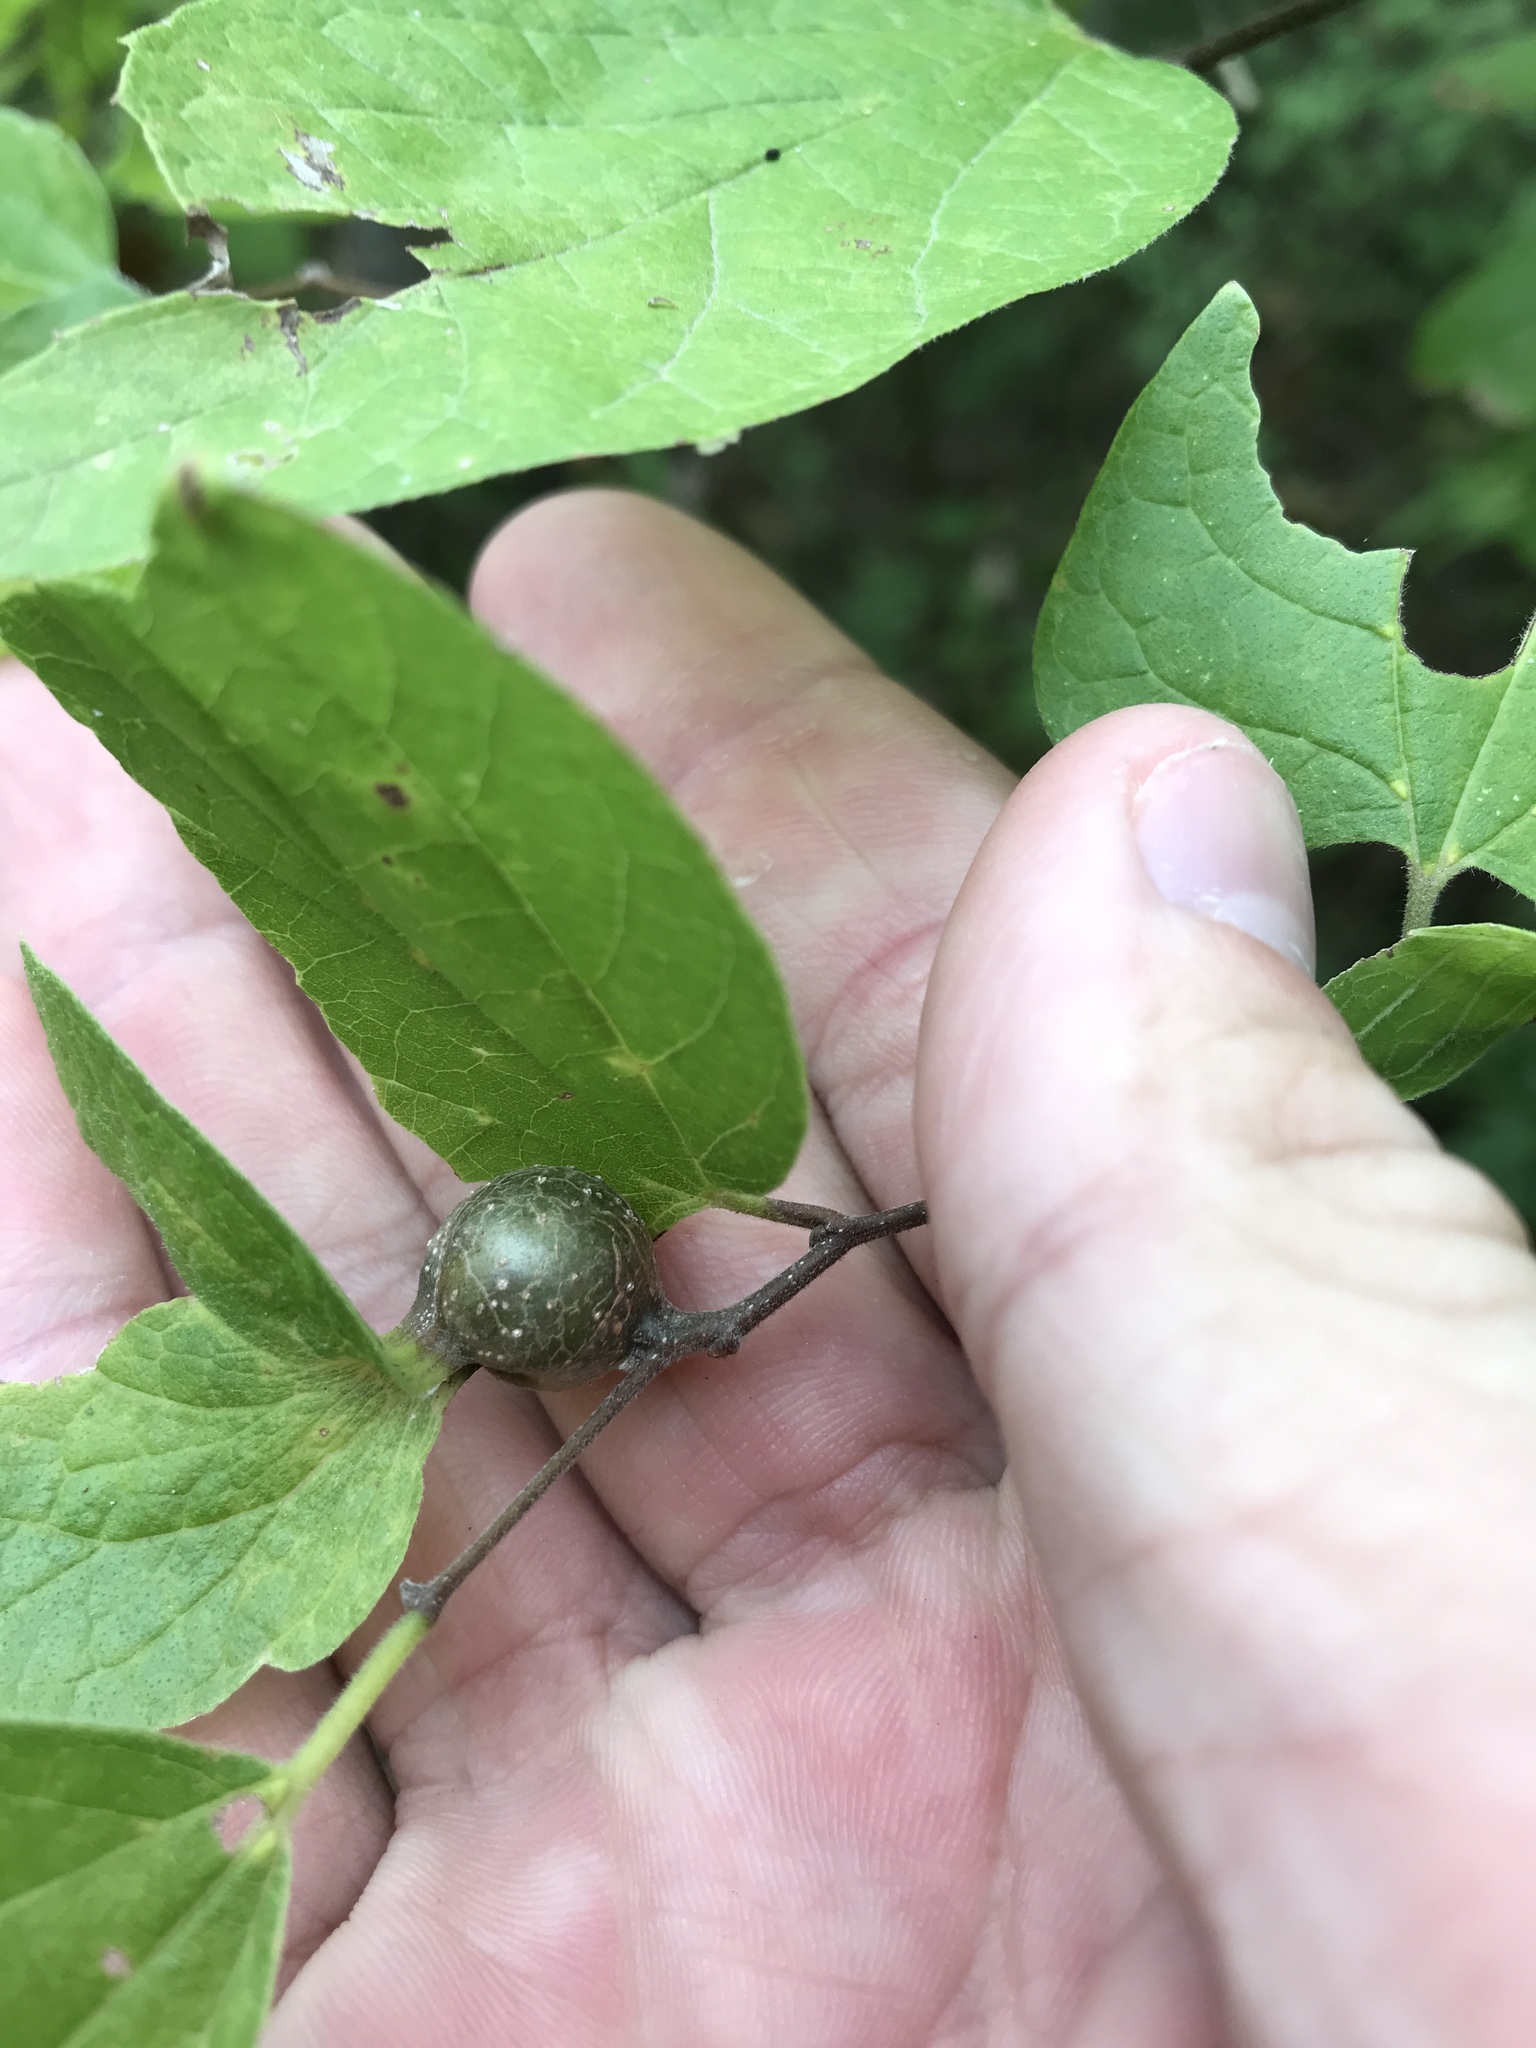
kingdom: Animalia
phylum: Arthropoda
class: Insecta
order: Hemiptera
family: Aphalaridae
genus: Pachypsylla
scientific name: Pachypsylla venusta
